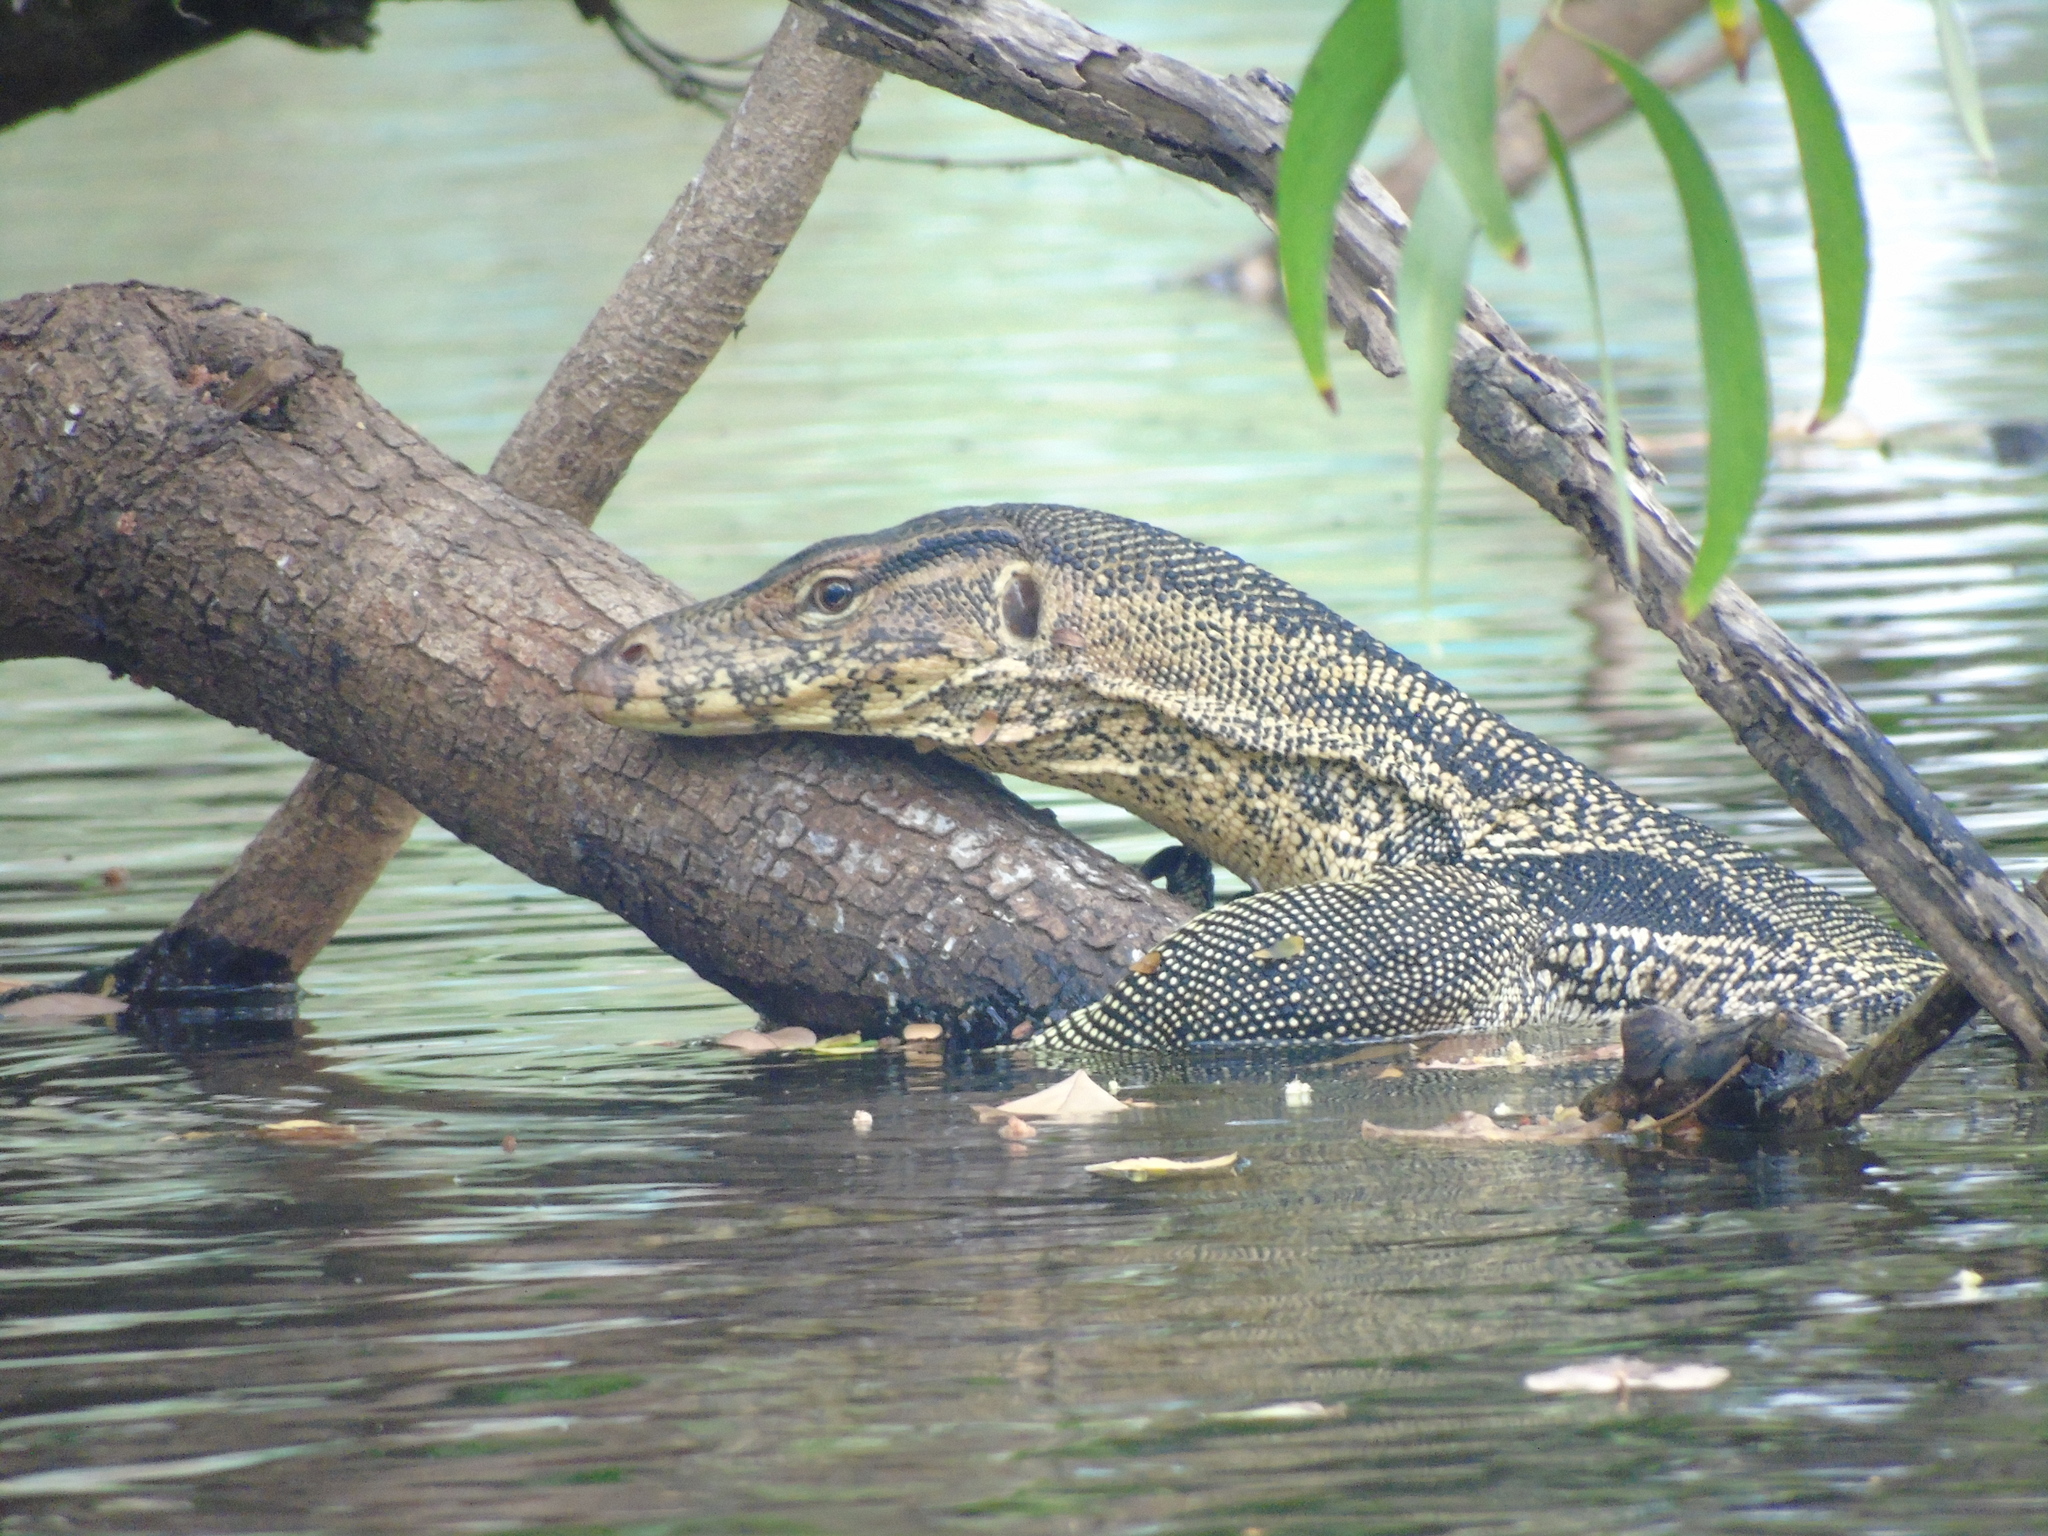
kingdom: Animalia
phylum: Chordata
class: Squamata
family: Varanidae
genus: Varanus
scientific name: Varanus salvator
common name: Common water monitor
